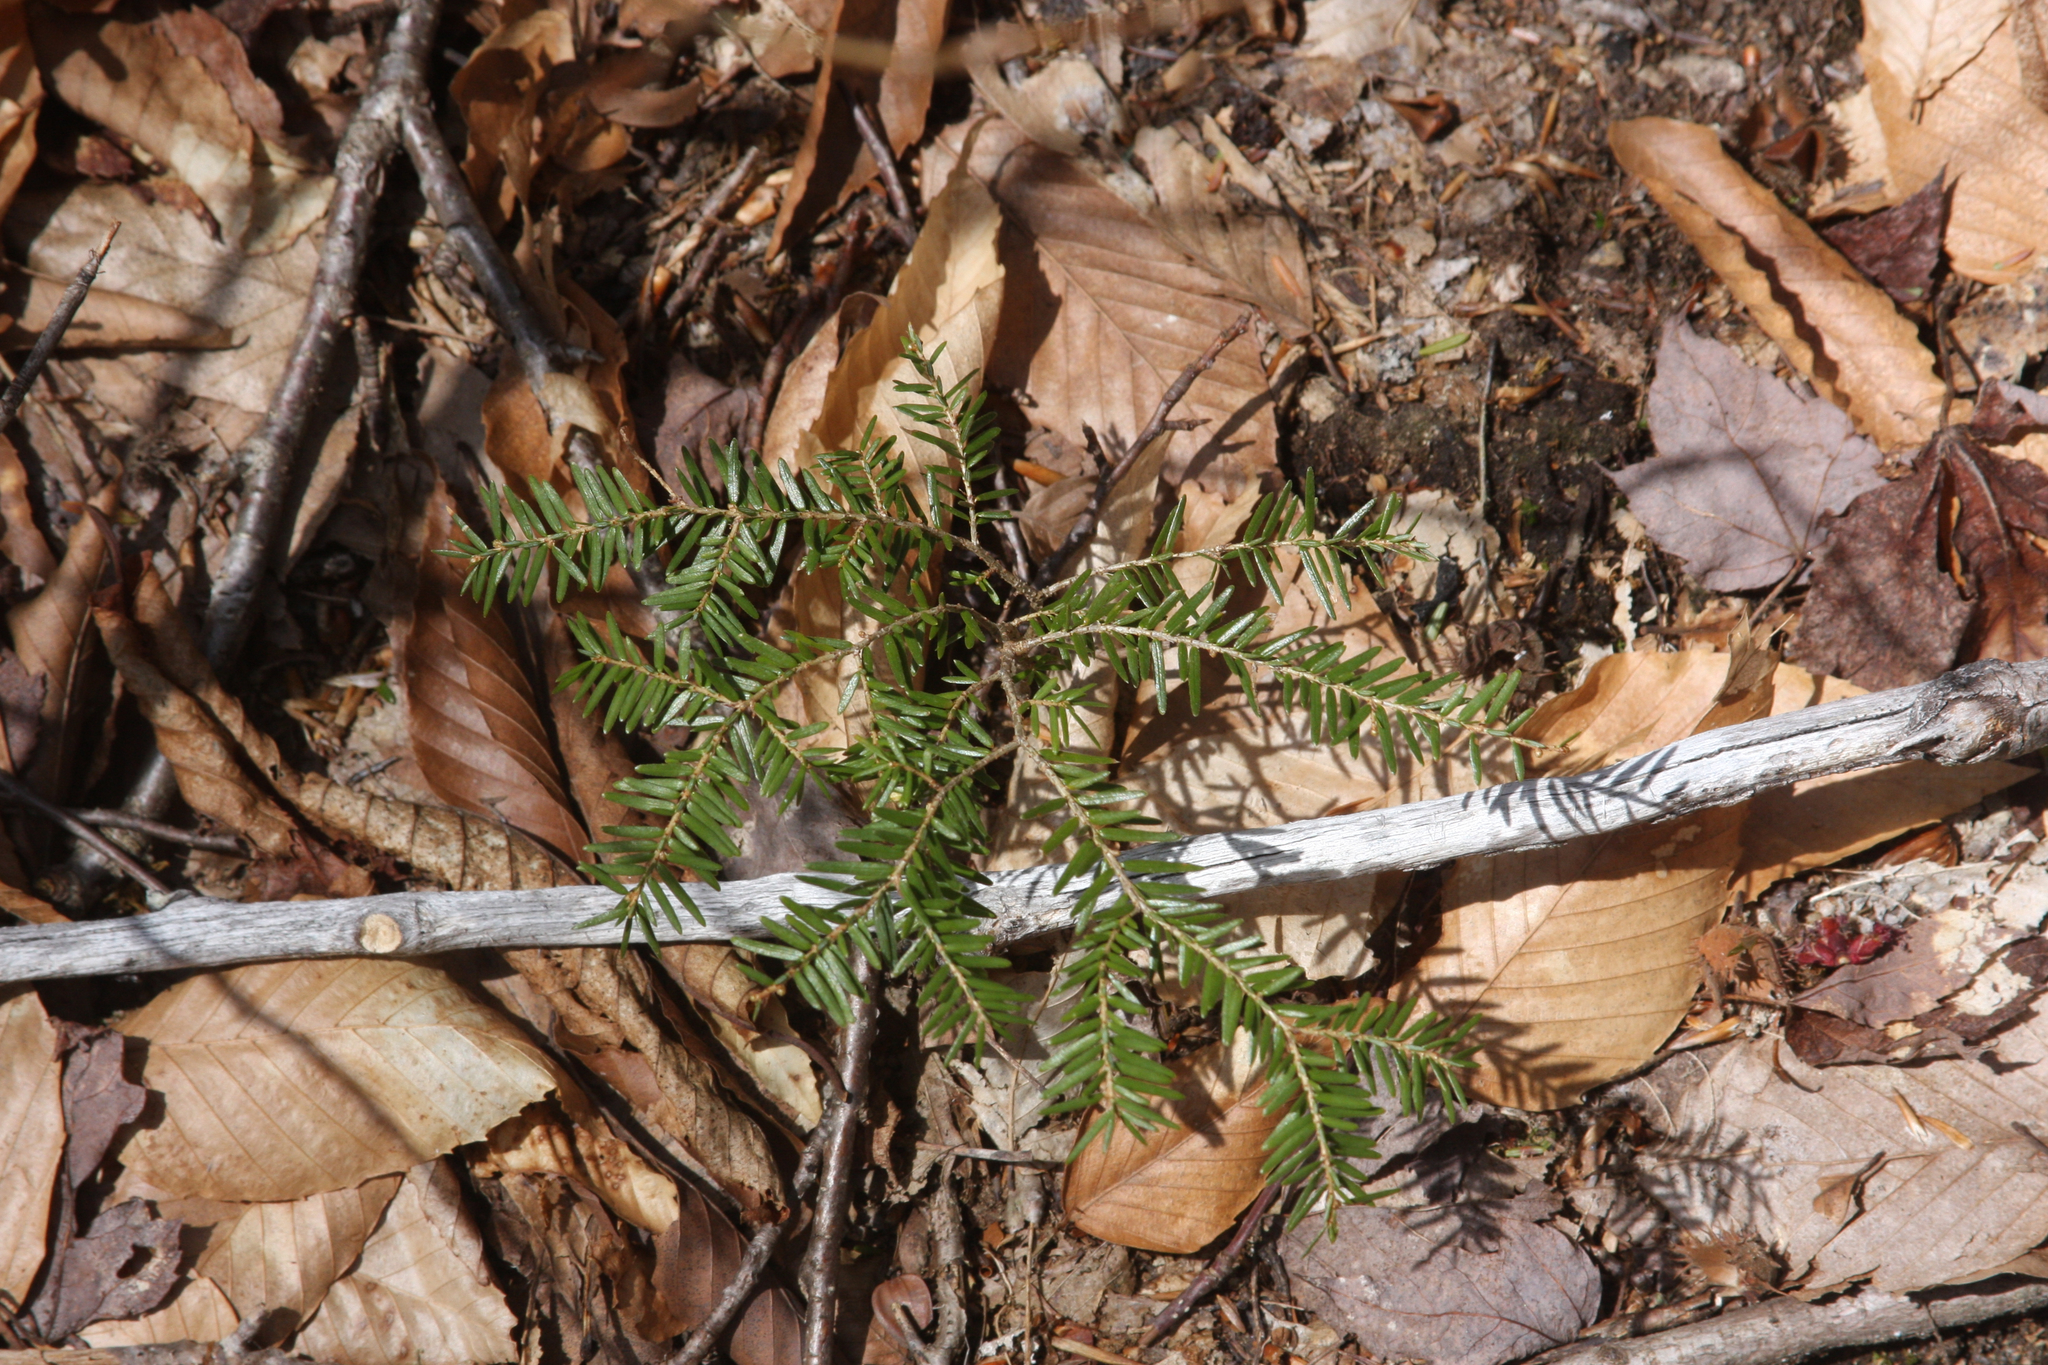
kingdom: Plantae
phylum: Tracheophyta
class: Pinopsida
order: Pinales
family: Pinaceae
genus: Tsuga
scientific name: Tsuga canadensis
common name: Eastern hemlock
